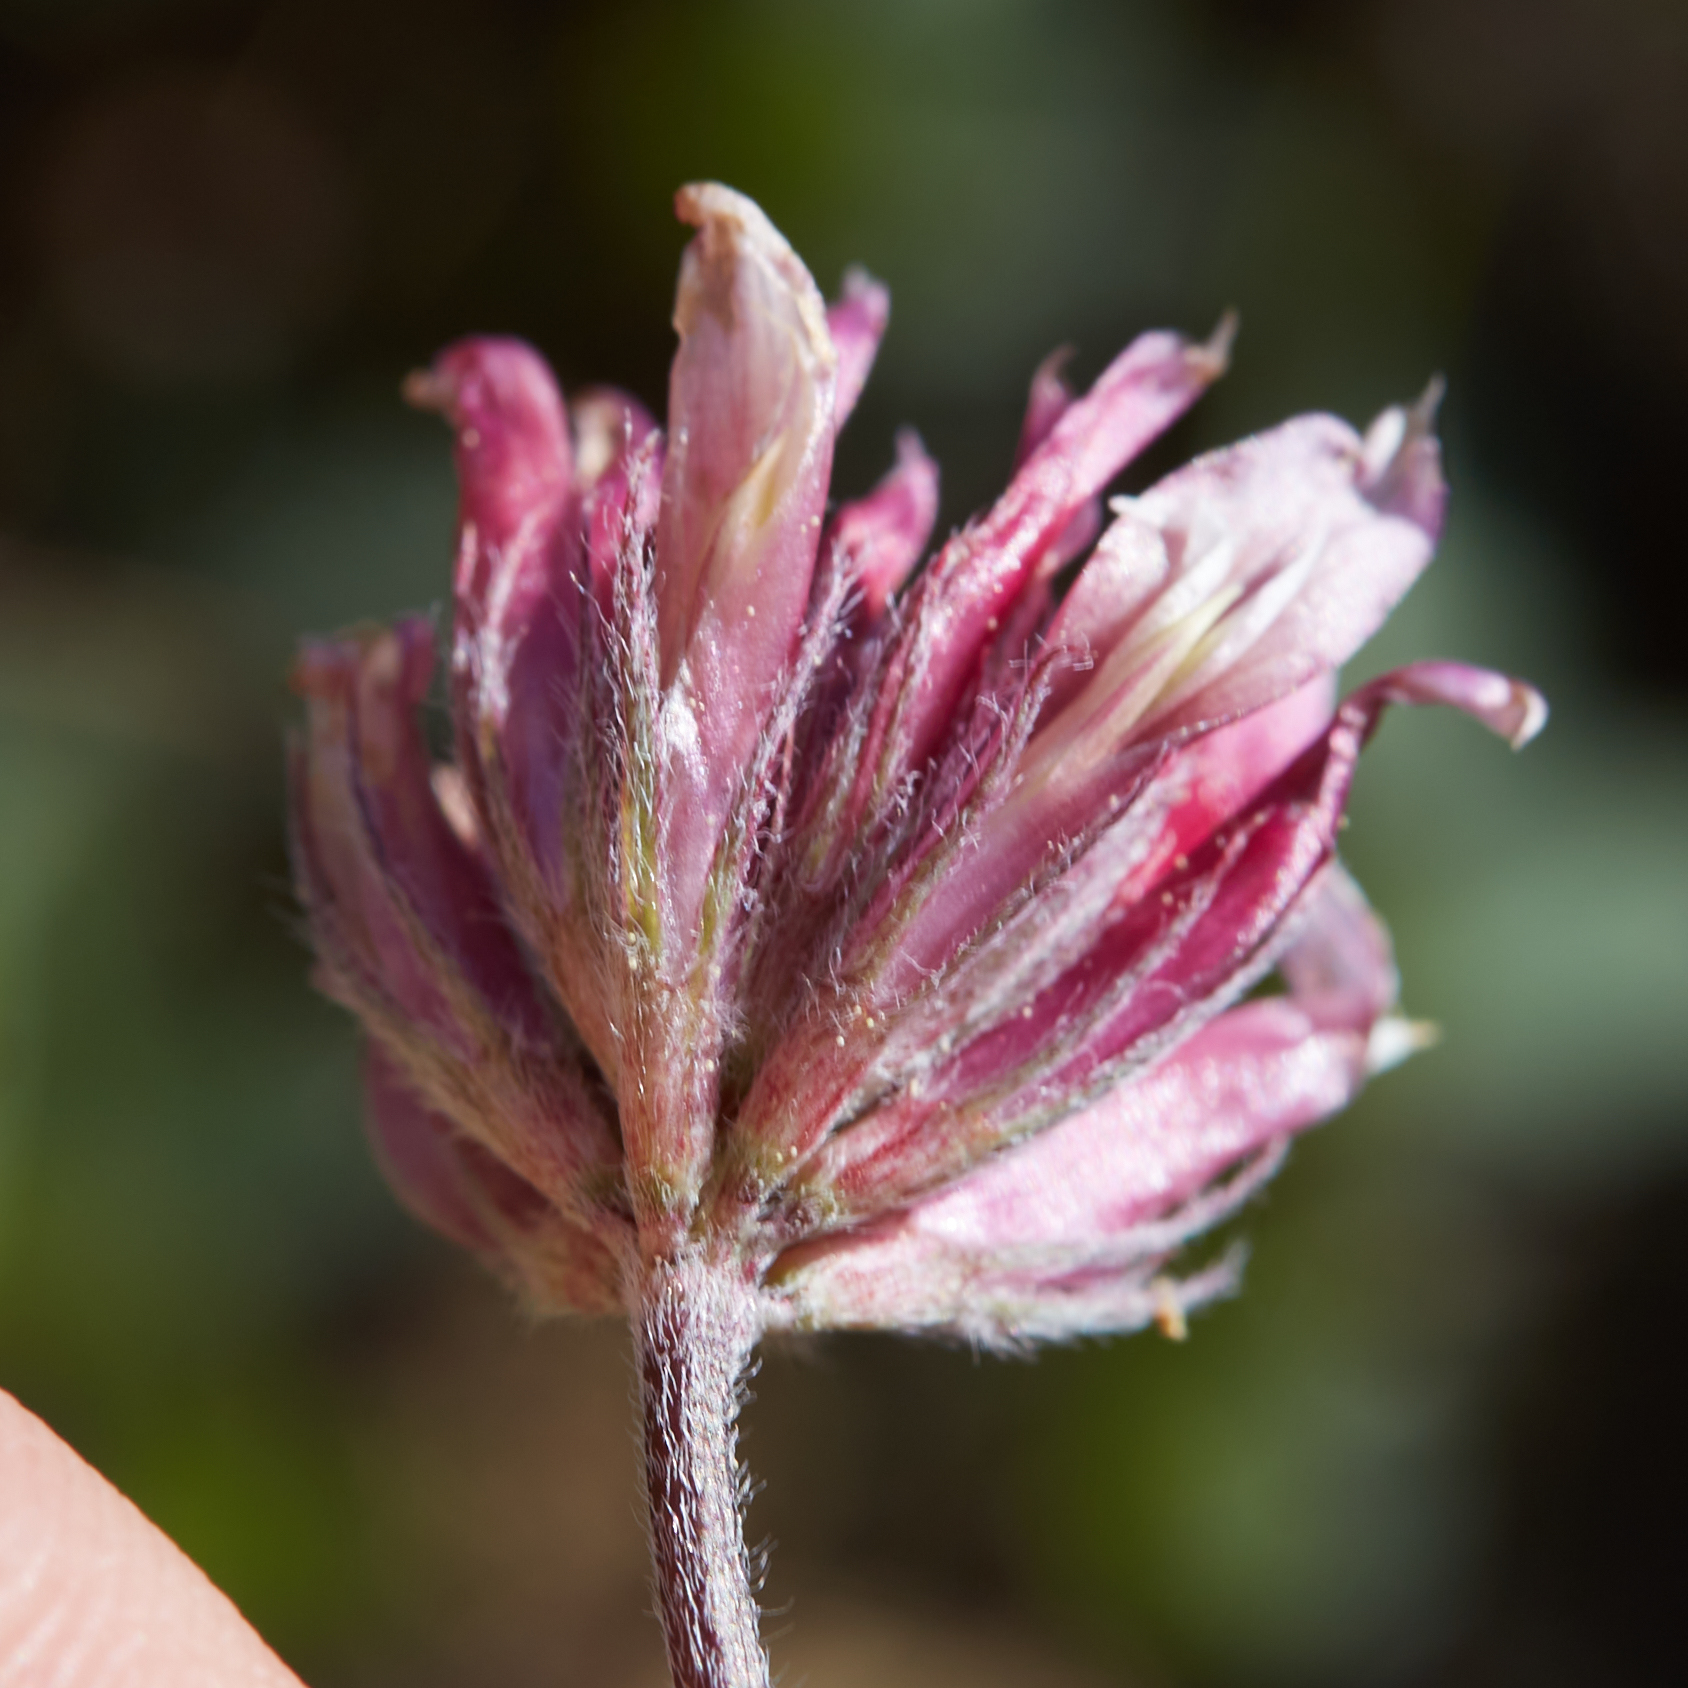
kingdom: Plantae
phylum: Tracheophyta
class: Magnoliopsida
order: Fabales
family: Fabaceae
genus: Trifolium
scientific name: Trifolium longipes
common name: Long-stalk clover
